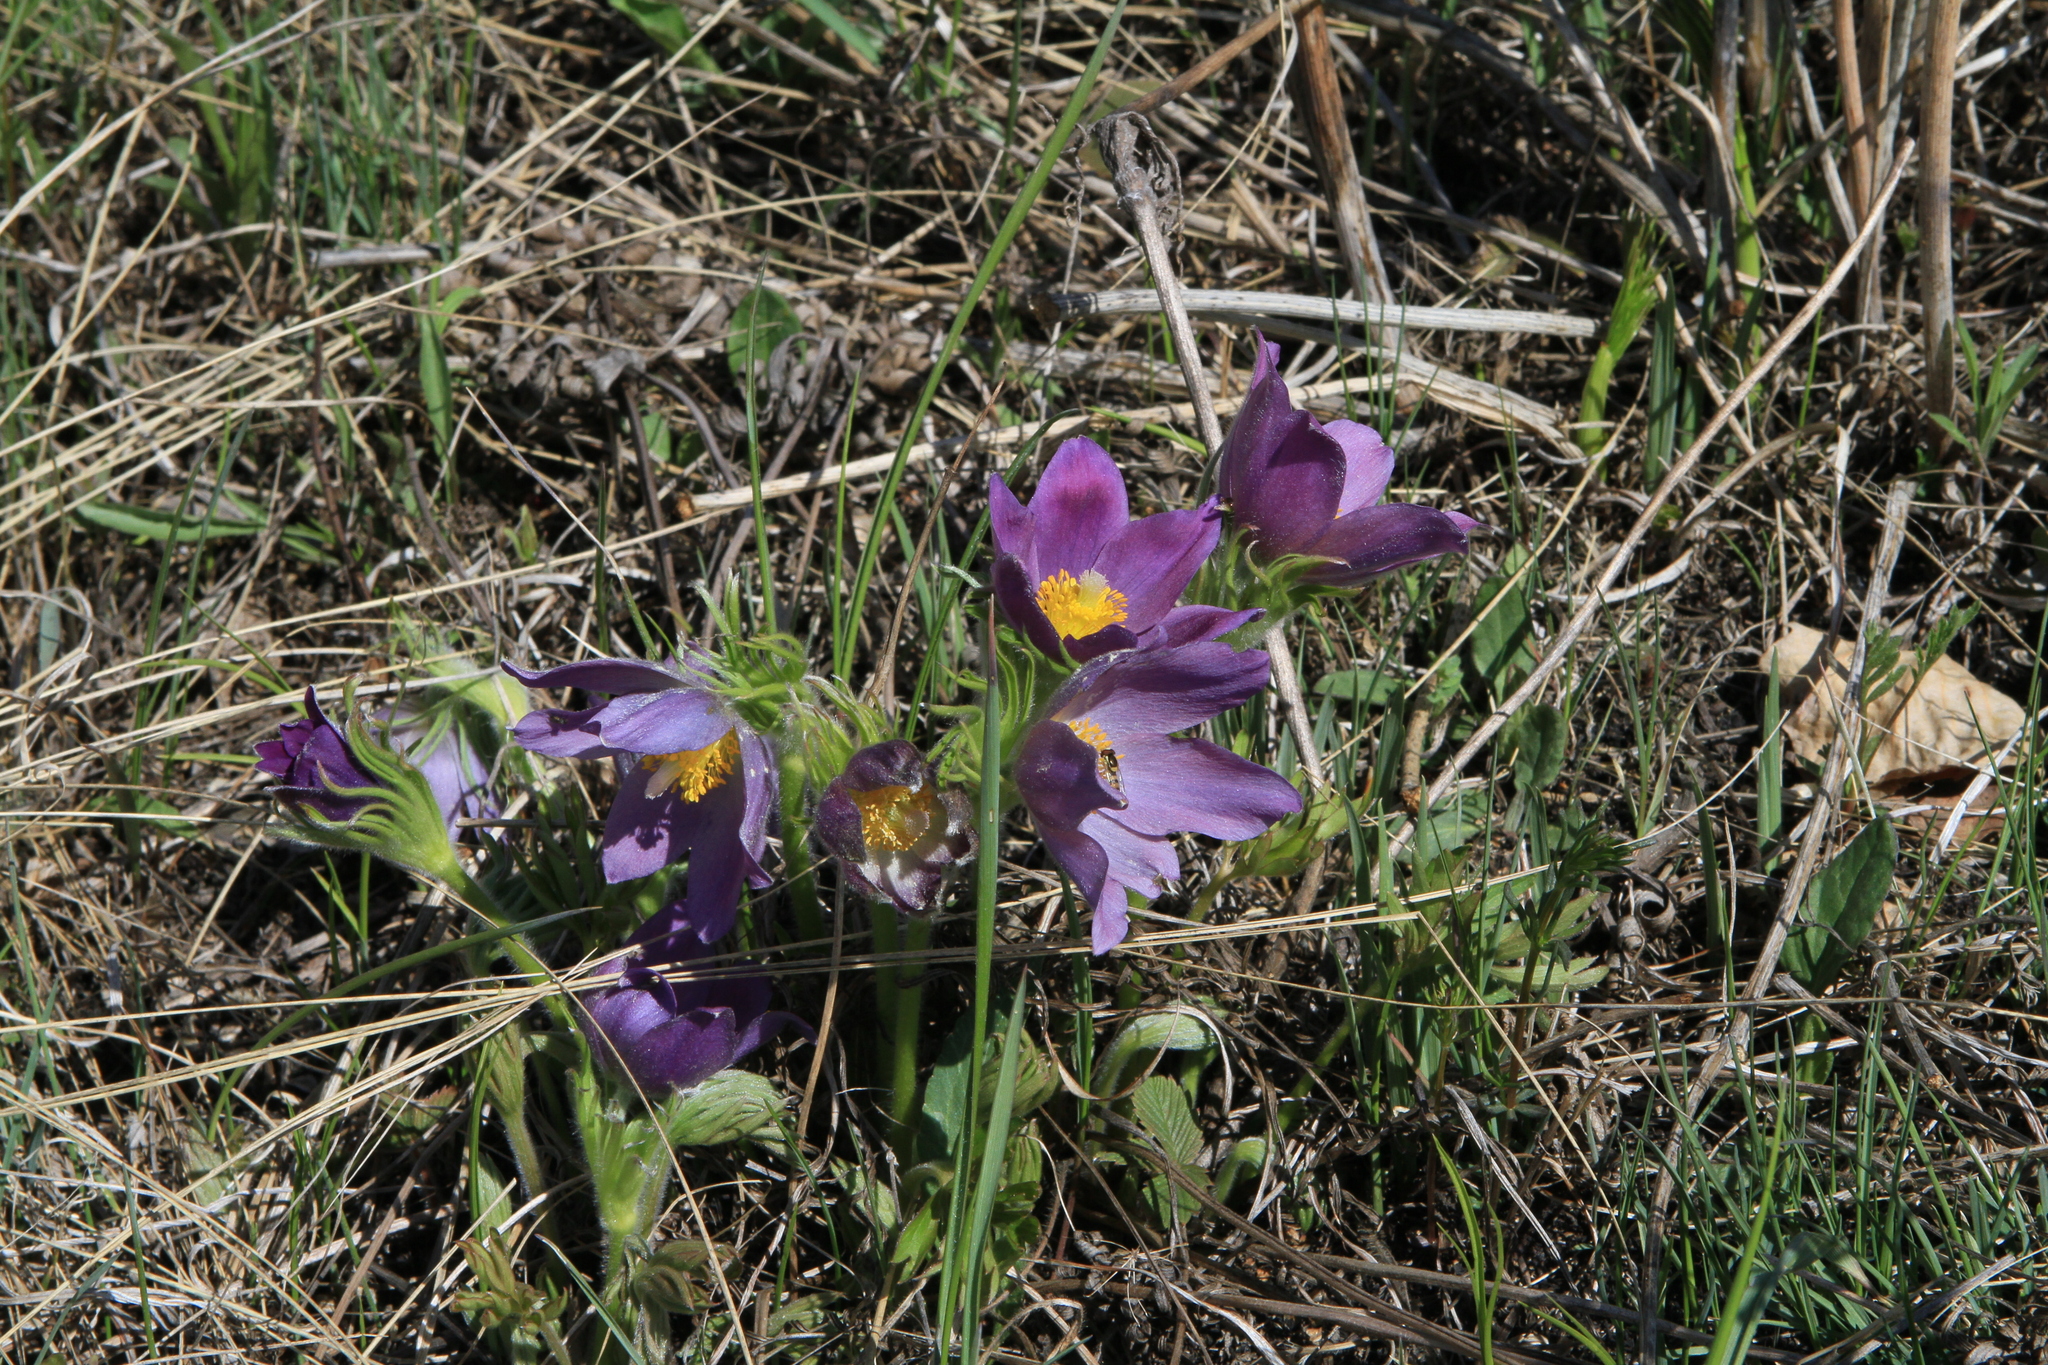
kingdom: Plantae
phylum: Tracheophyta
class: Magnoliopsida
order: Ranunculales
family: Ranunculaceae
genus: Pulsatilla
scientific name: Pulsatilla patens
